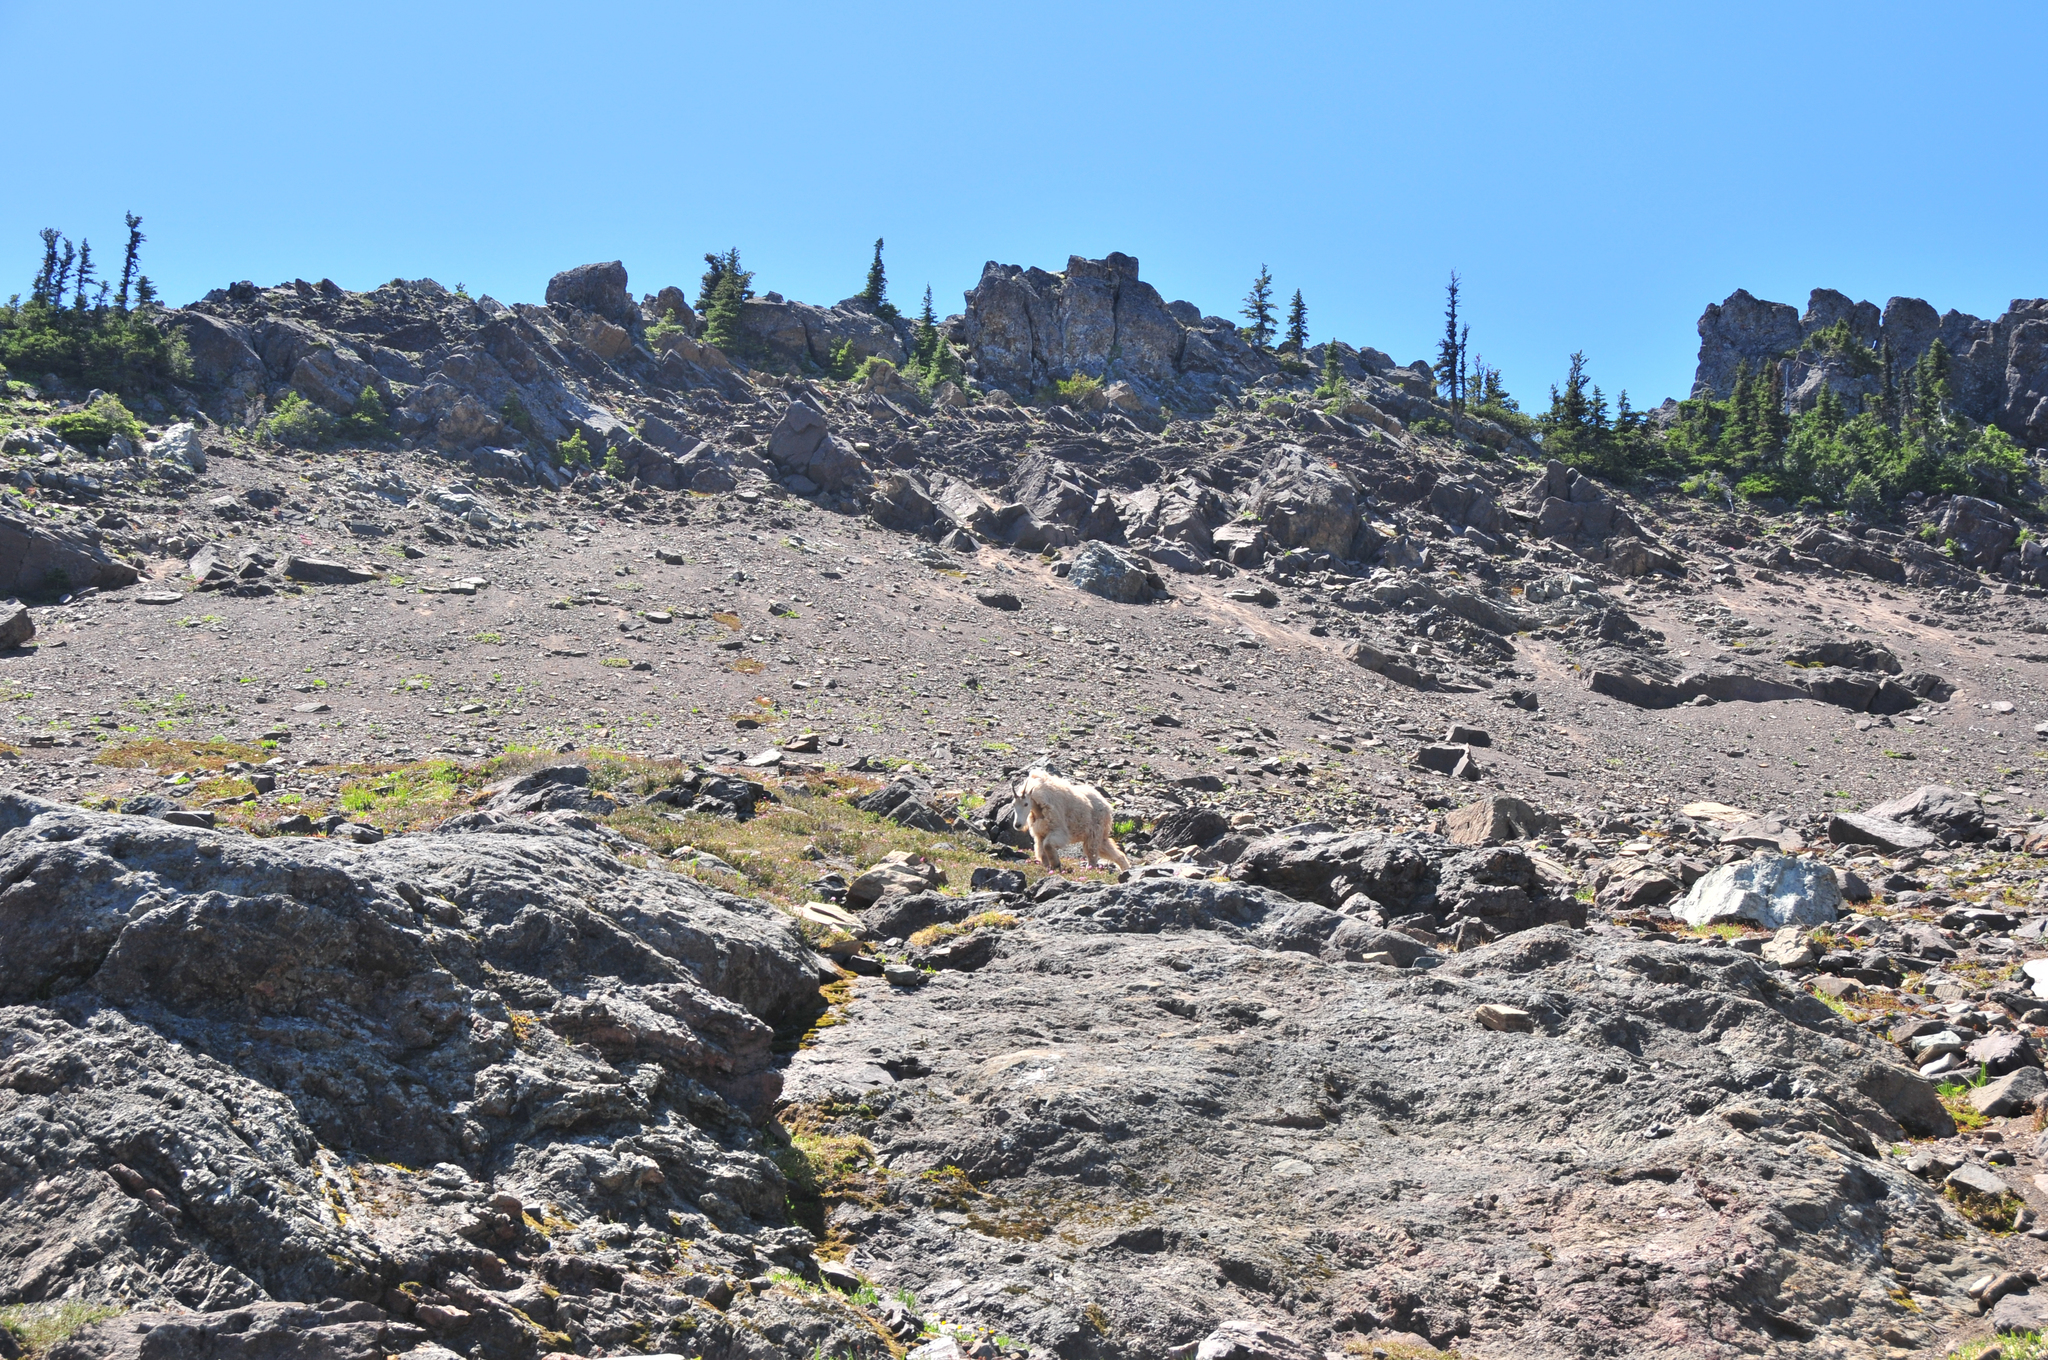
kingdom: Animalia
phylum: Chordata
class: Mammalia
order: Artiodactyla
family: Bovidae
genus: Oreamnos
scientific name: Oreamnos americanus
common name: Mountain goat
